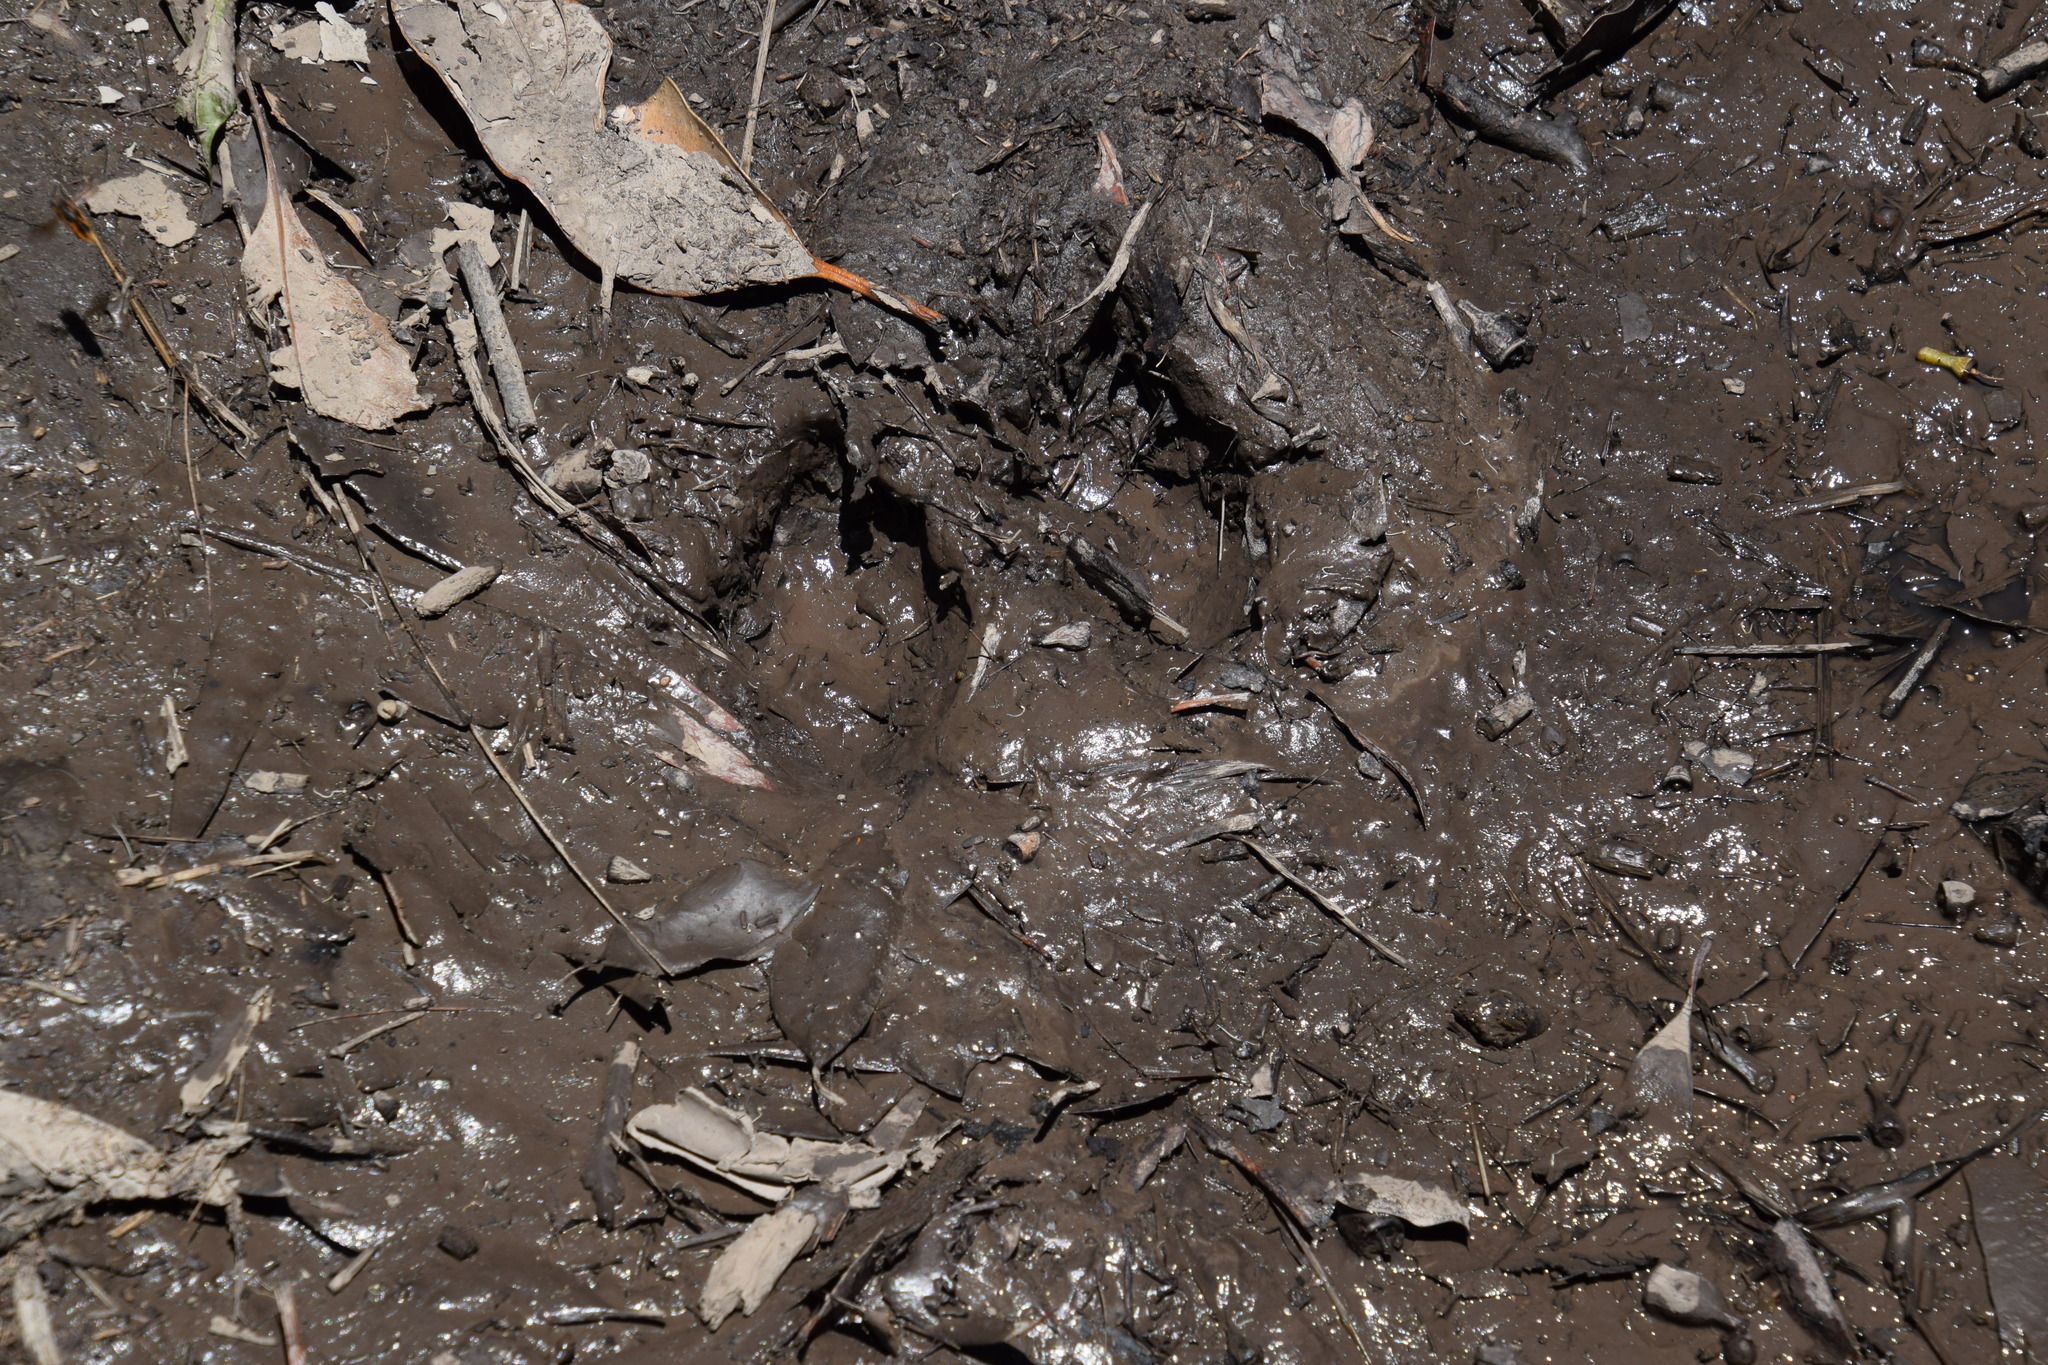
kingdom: Animalia
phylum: Chordata
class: Mammalia
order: Carnivora
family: Canidae
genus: Canis
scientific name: Canis lupus
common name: Gray wolf
